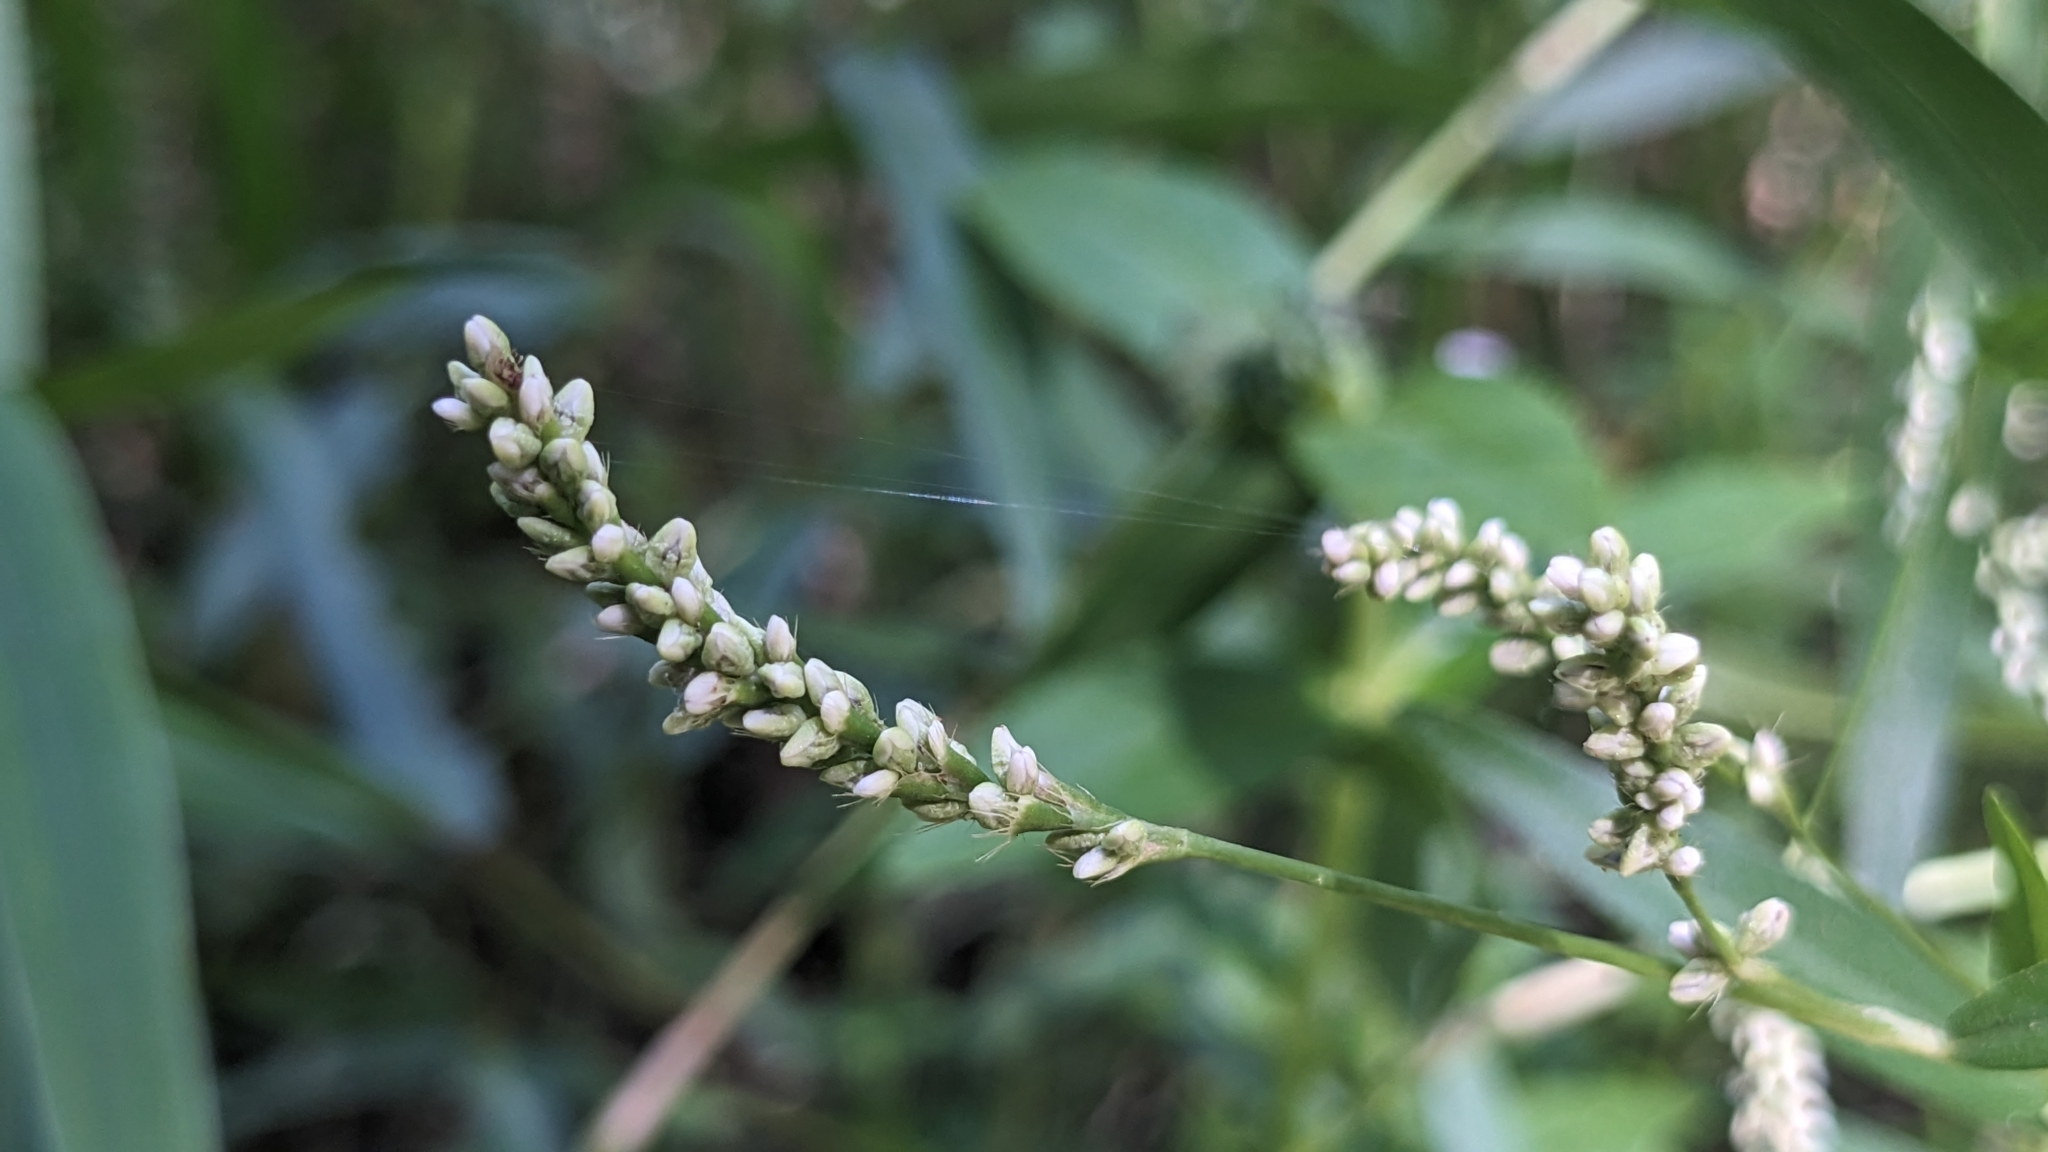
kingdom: Plantae
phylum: Tracheophyta
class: Magnoliopsida
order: Caryophyllales
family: Polygonaceae
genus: Persicaria
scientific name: Persicaria longiseta
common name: Bristly lady's-thumb
